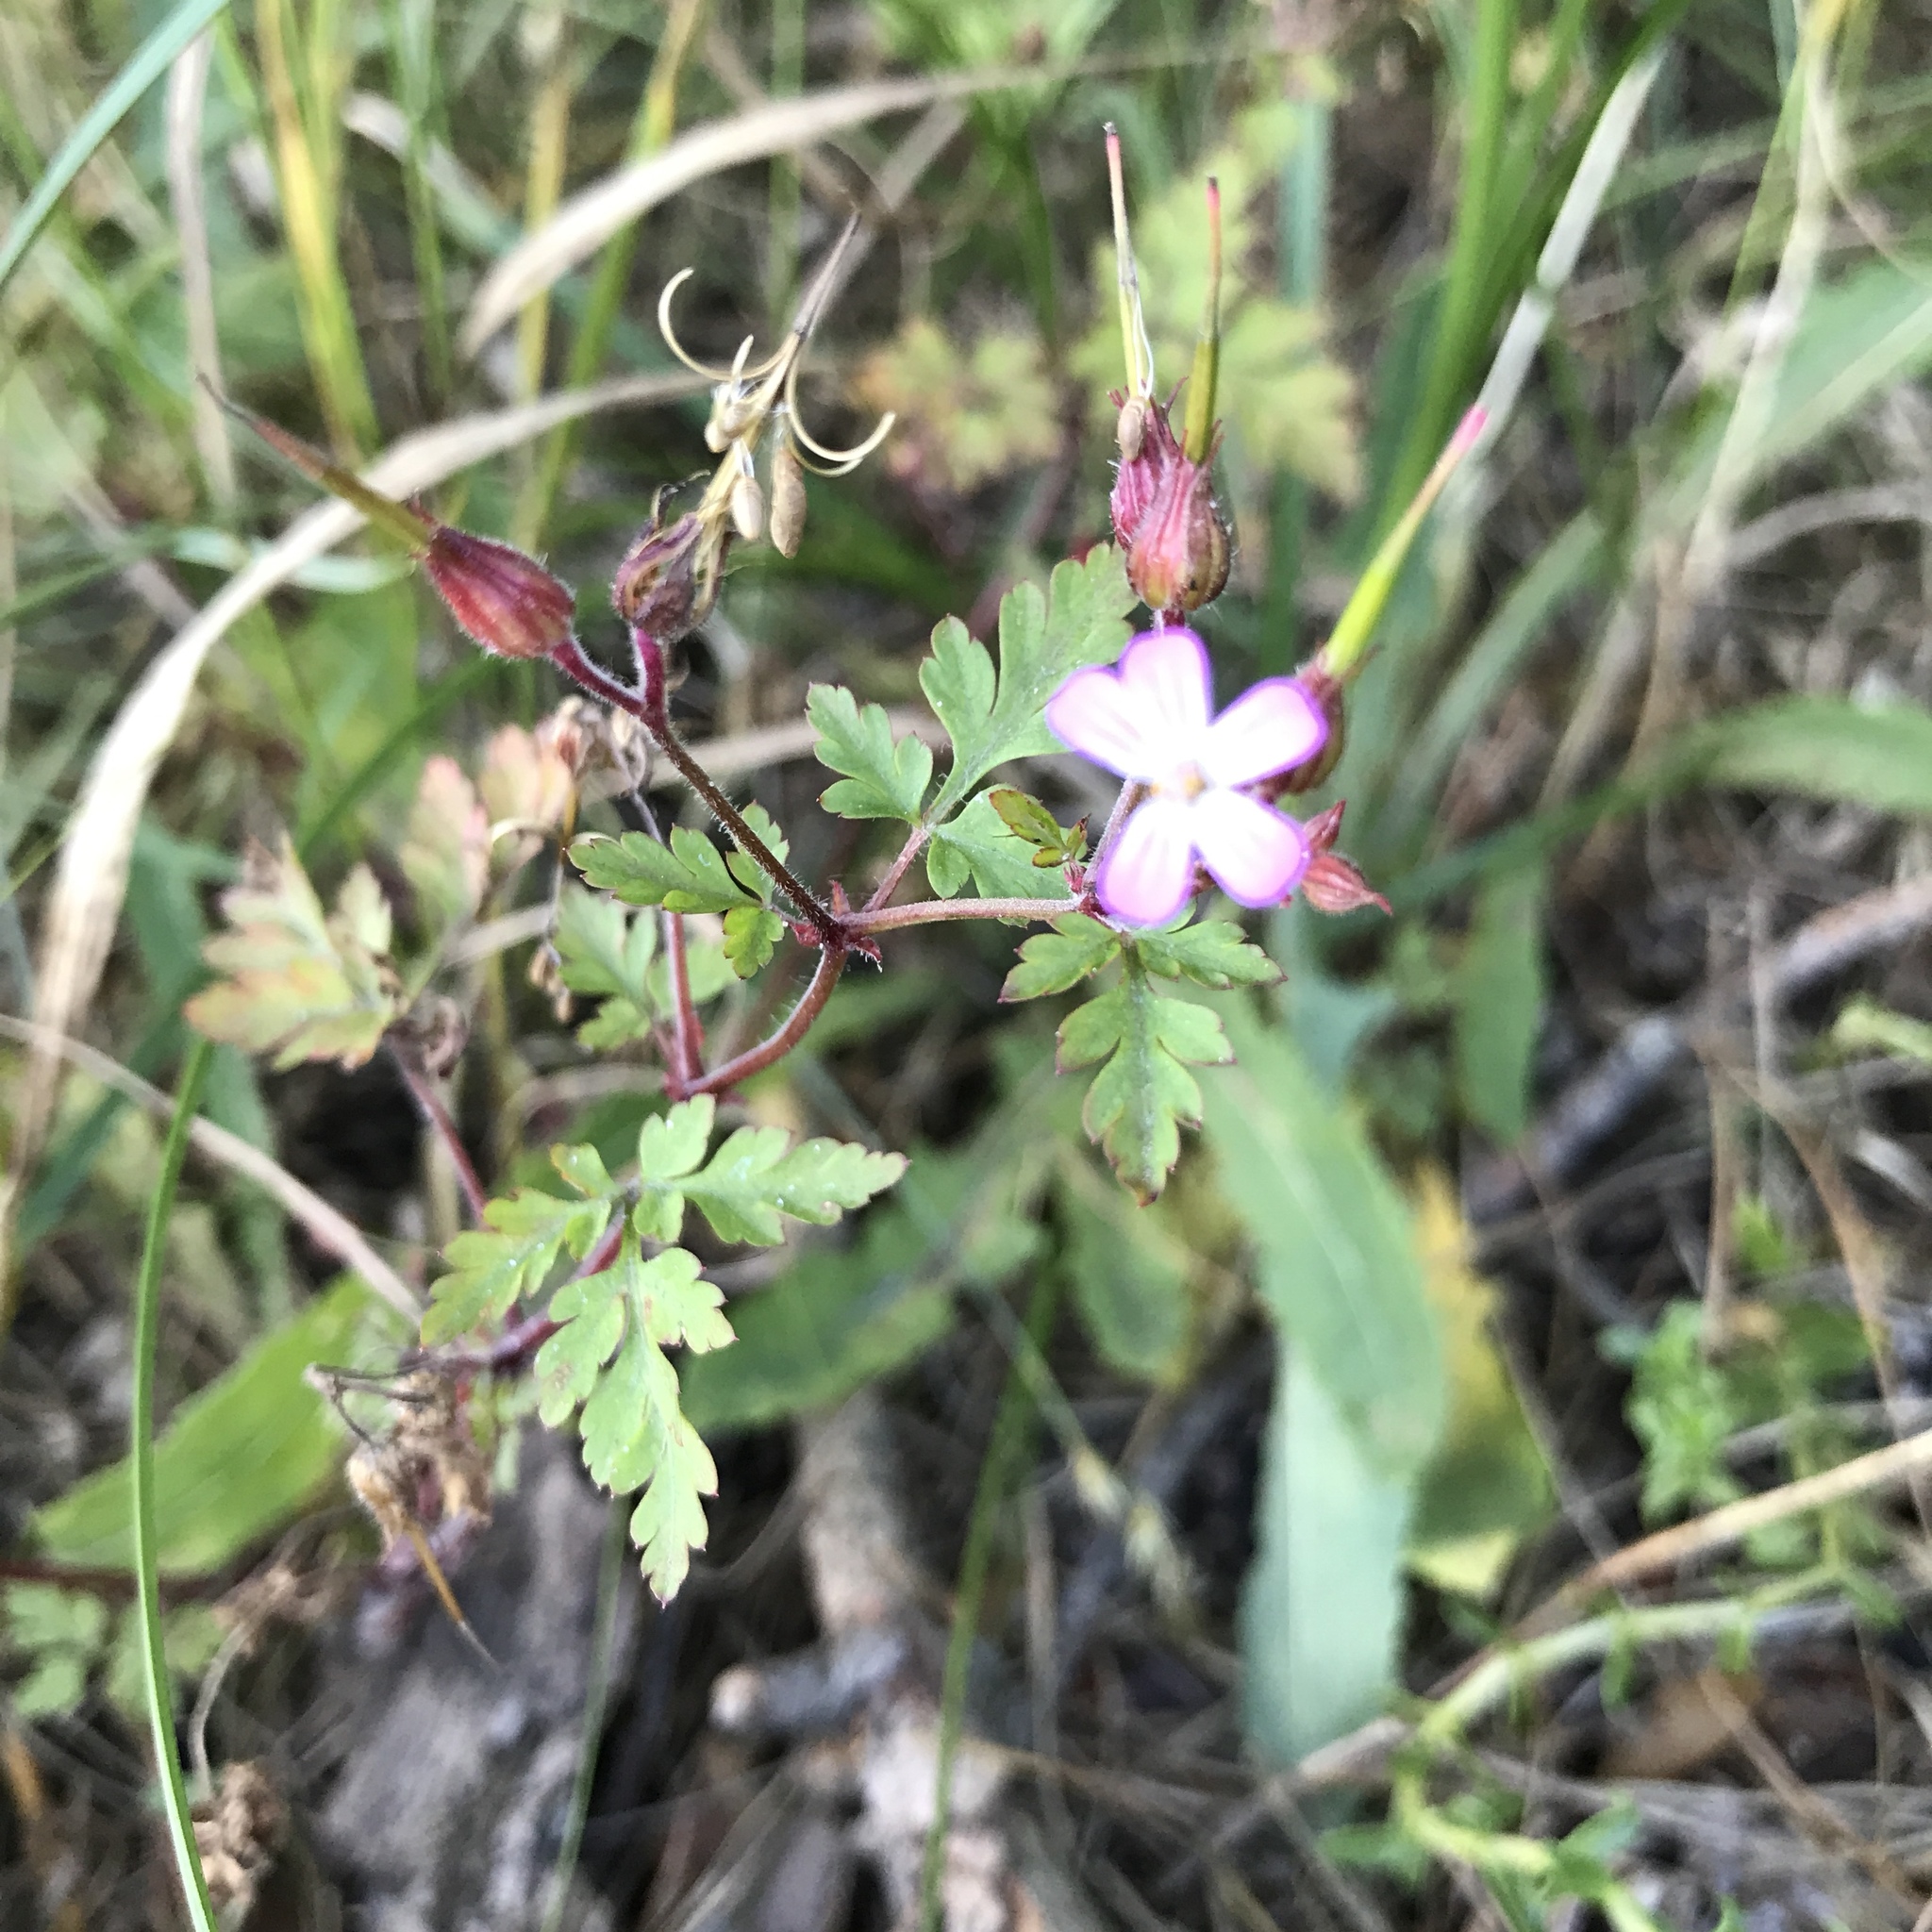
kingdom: Plantae
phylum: Tracheophyta
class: Magnoliopsida
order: Geraniales
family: Geraniaceae
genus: Geranium
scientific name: Geranium robertianum
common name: Herb-robert
